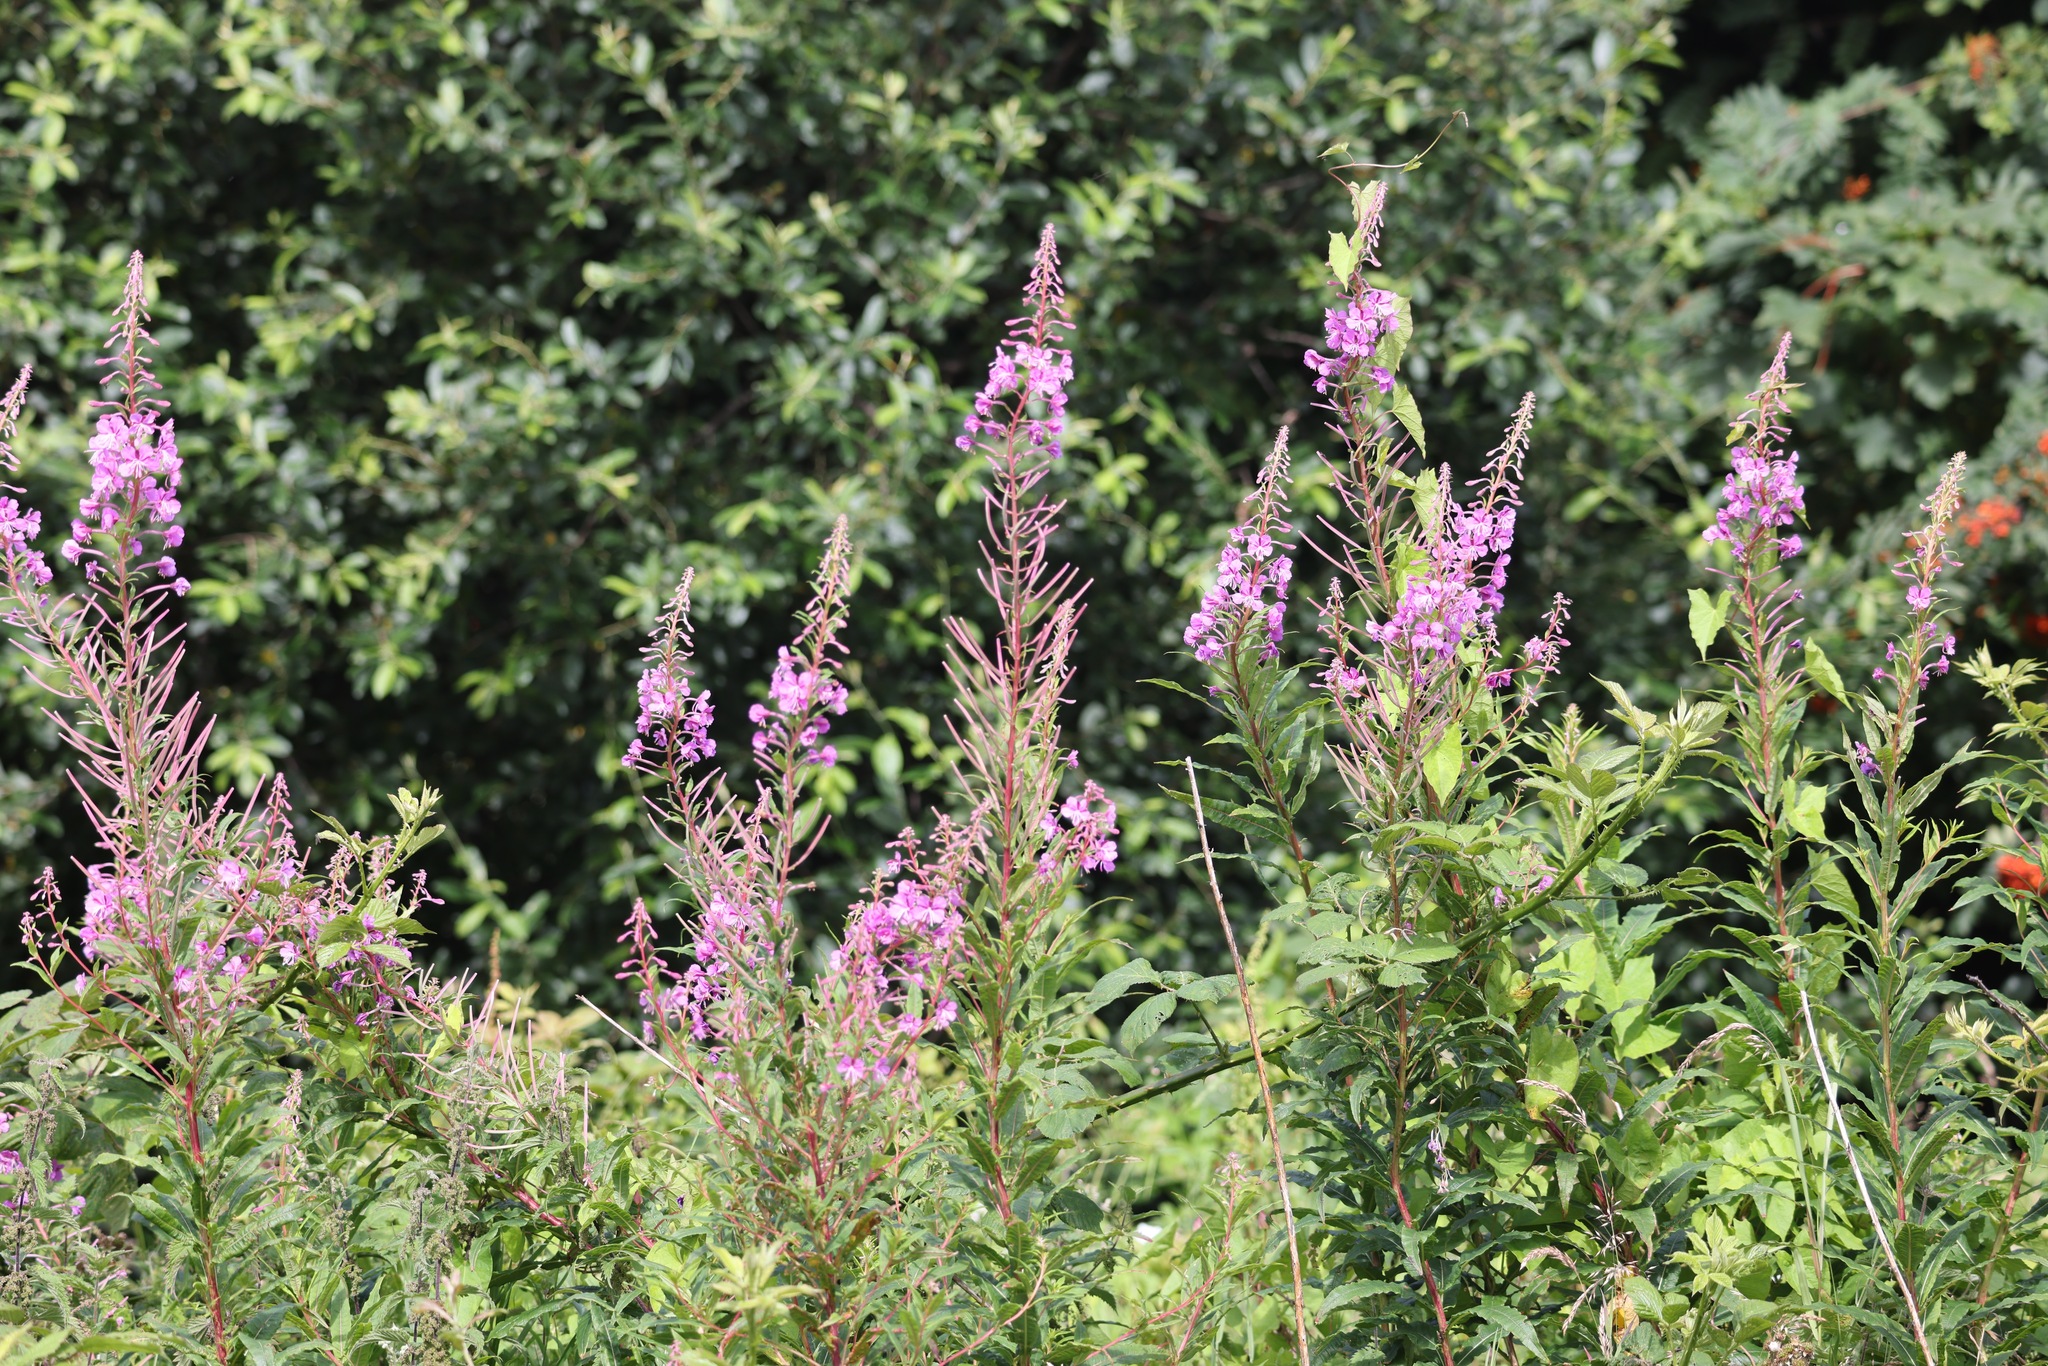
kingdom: Plantae
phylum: Tracheophyta
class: Magnoliopsida
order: Myrtales
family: Onagraceae
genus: Chamaenerion
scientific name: Chamaenerion angustifolium
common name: Fireweed
